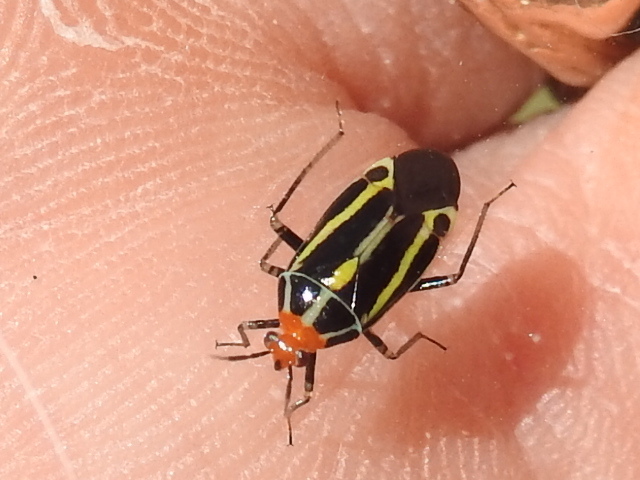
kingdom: Animalia
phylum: Arthropoda
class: Insecta
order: Hemiptera
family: Miridae
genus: Poecilocapsus
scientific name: Poecilocapsus lineatus
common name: Four-lined plant bug
